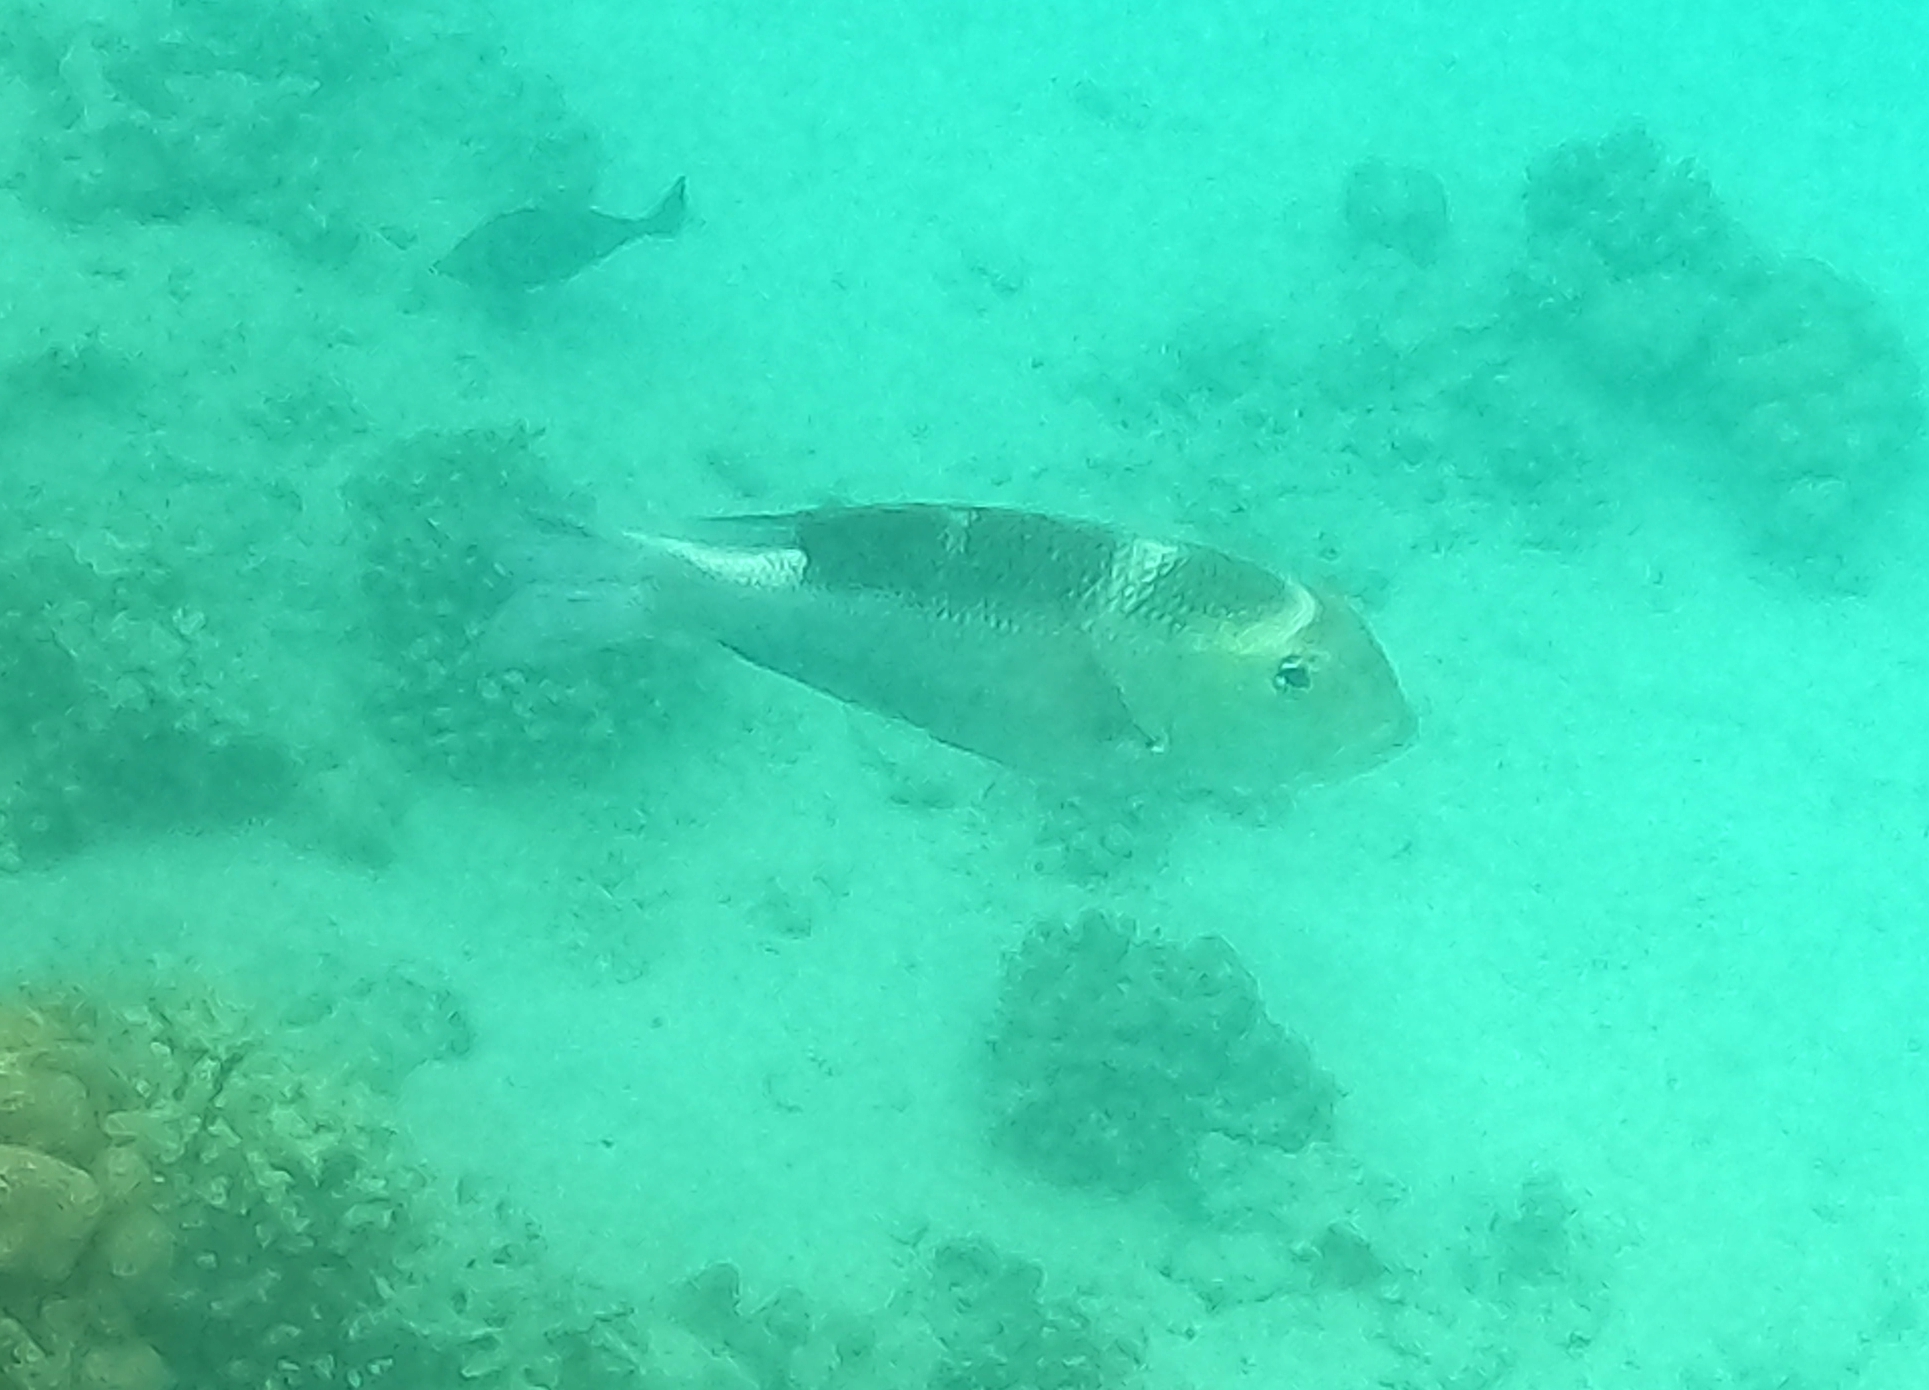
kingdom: Animalia
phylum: Chordata
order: Perciformes
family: Lethrinidae
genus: Monotaxis
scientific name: Monotaxis grandoculis
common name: Bigeye emperor
